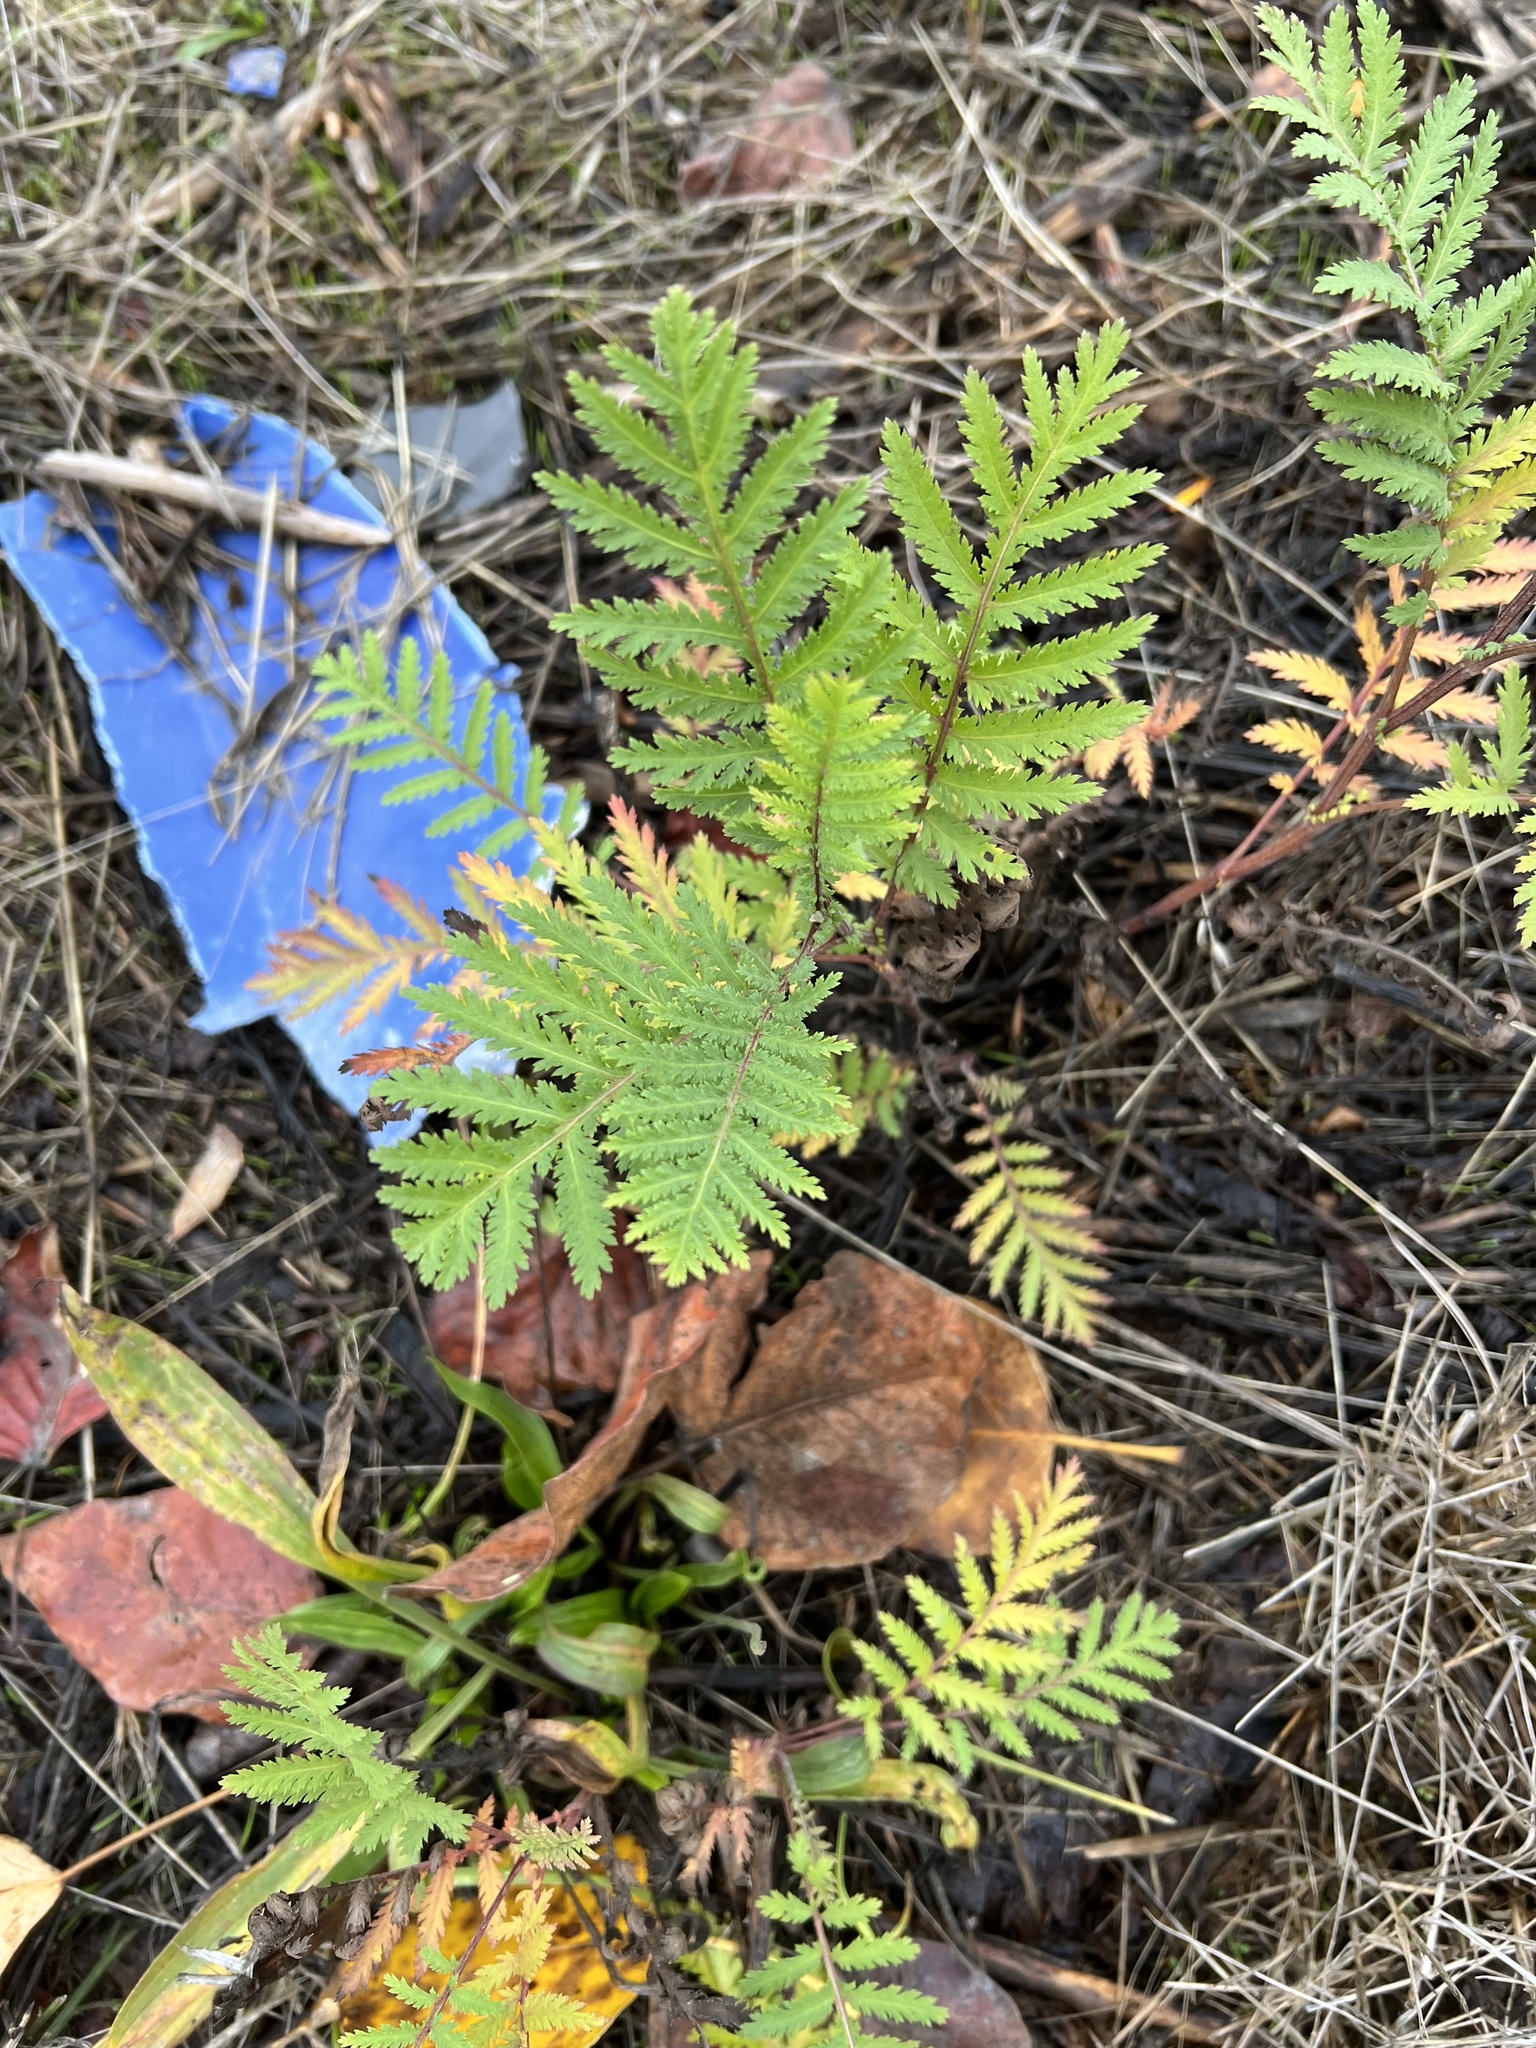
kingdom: Plantae
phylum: Tracheophyta
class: Magnoliopsida
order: Asterales
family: Asteraceae
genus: Tanacetum
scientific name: Tanacetum vulgare
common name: Common tansy
